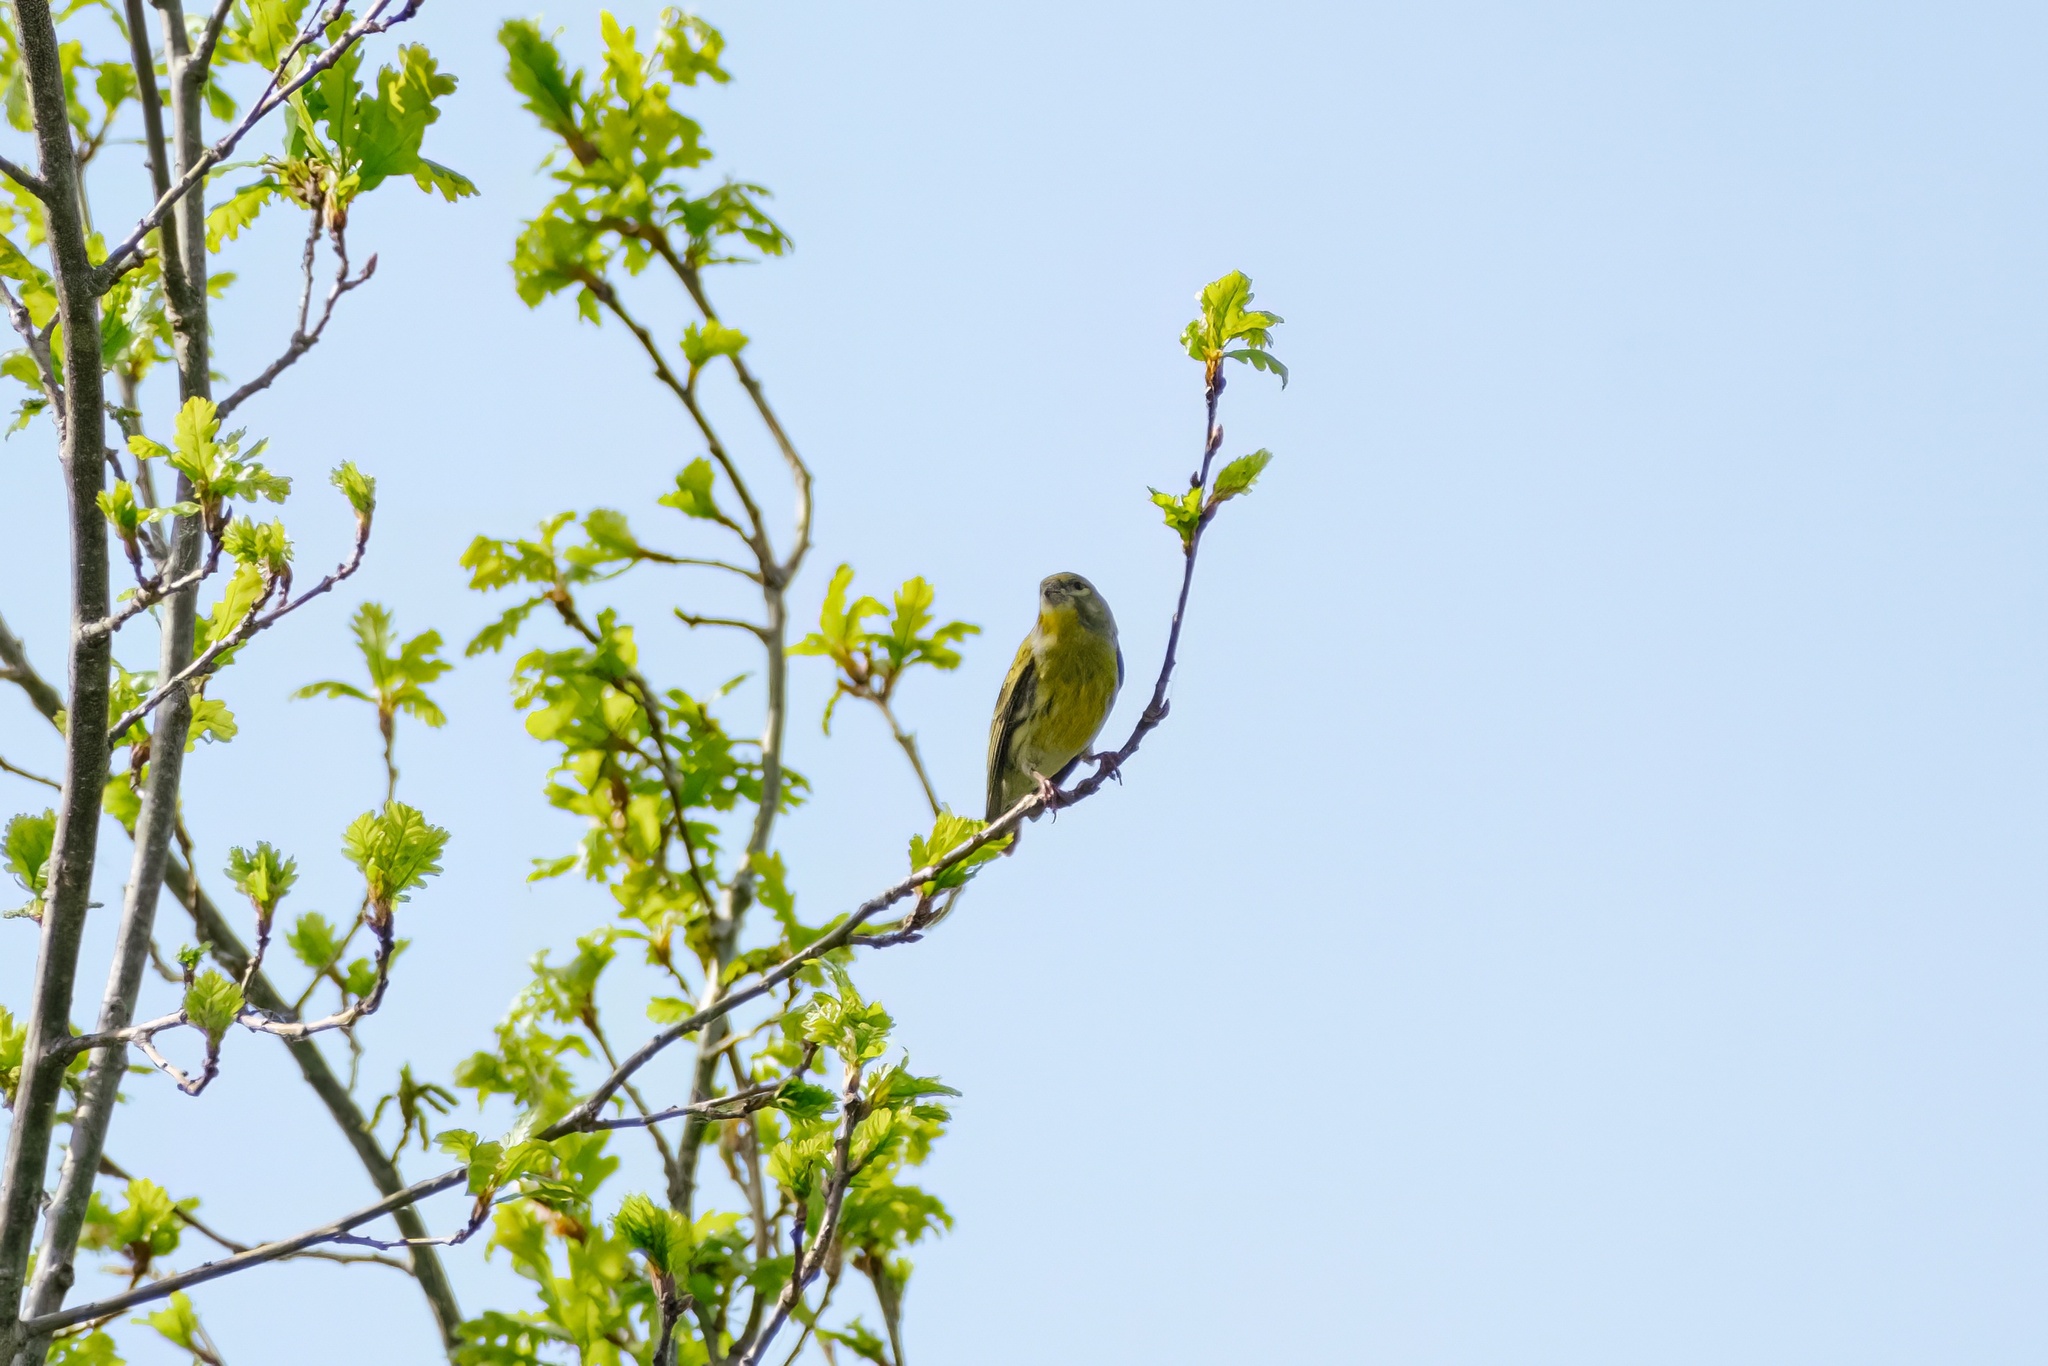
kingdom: Animalia
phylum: Chordata
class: Aves
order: Passeriformes
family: Fringillidae
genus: Serinus
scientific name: Serinus serinus
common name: European serin
